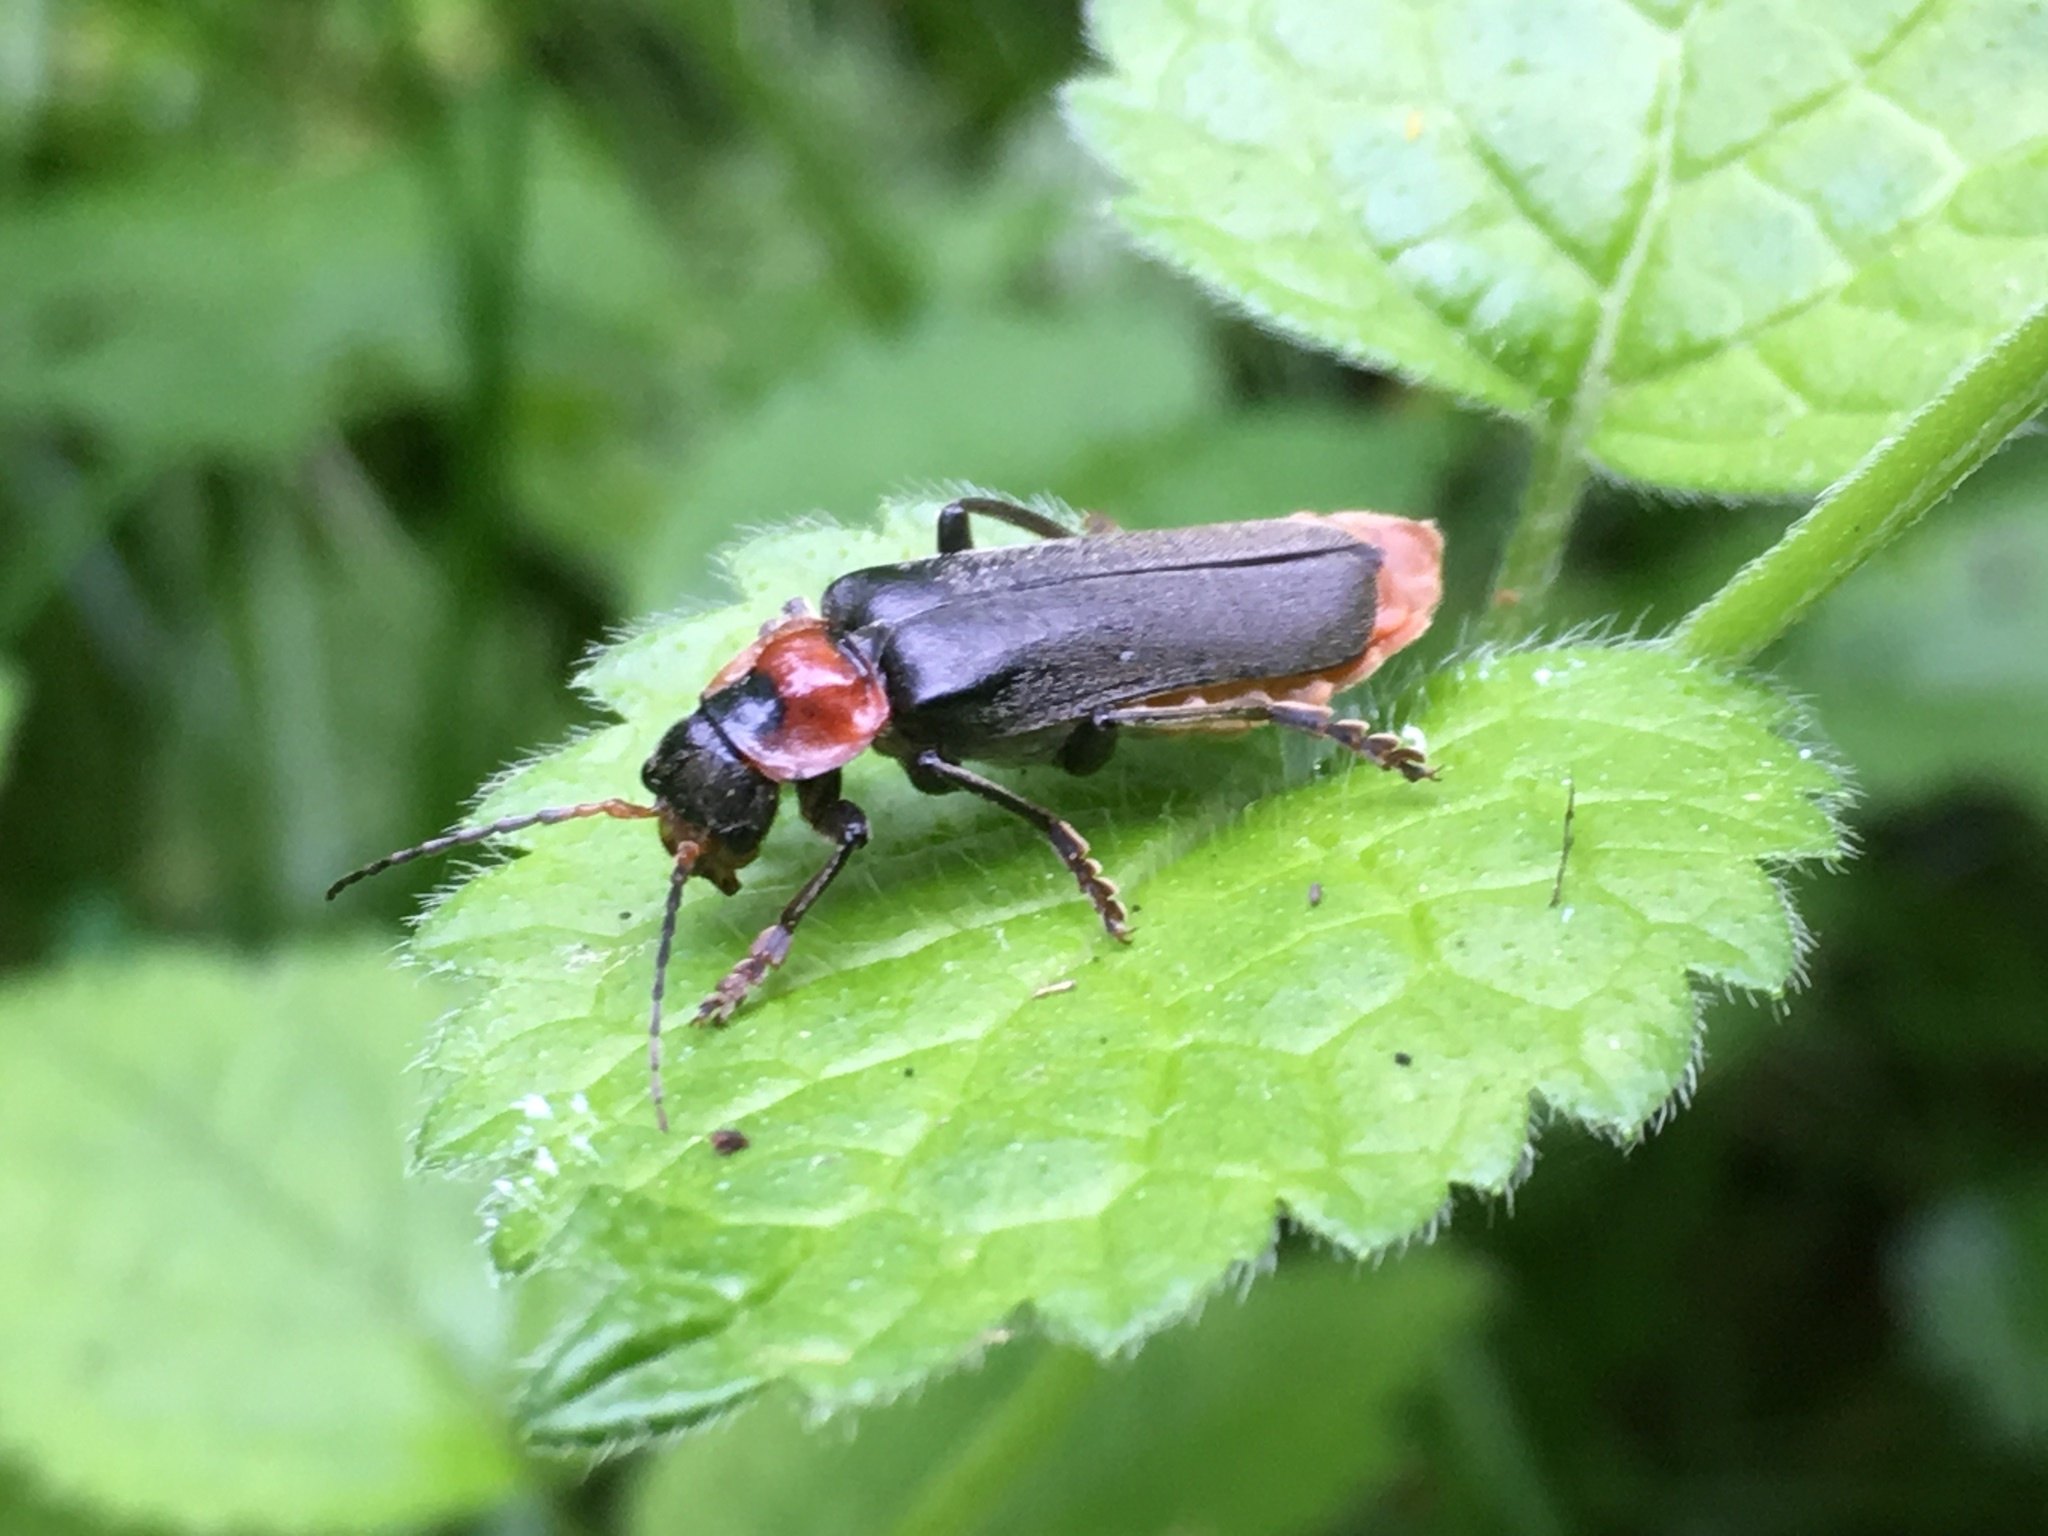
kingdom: Animalia
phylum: Arthropoda
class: Insecta
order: Coleoptera
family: Cantharidae
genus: Cantharis
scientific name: Cantharis fusca
